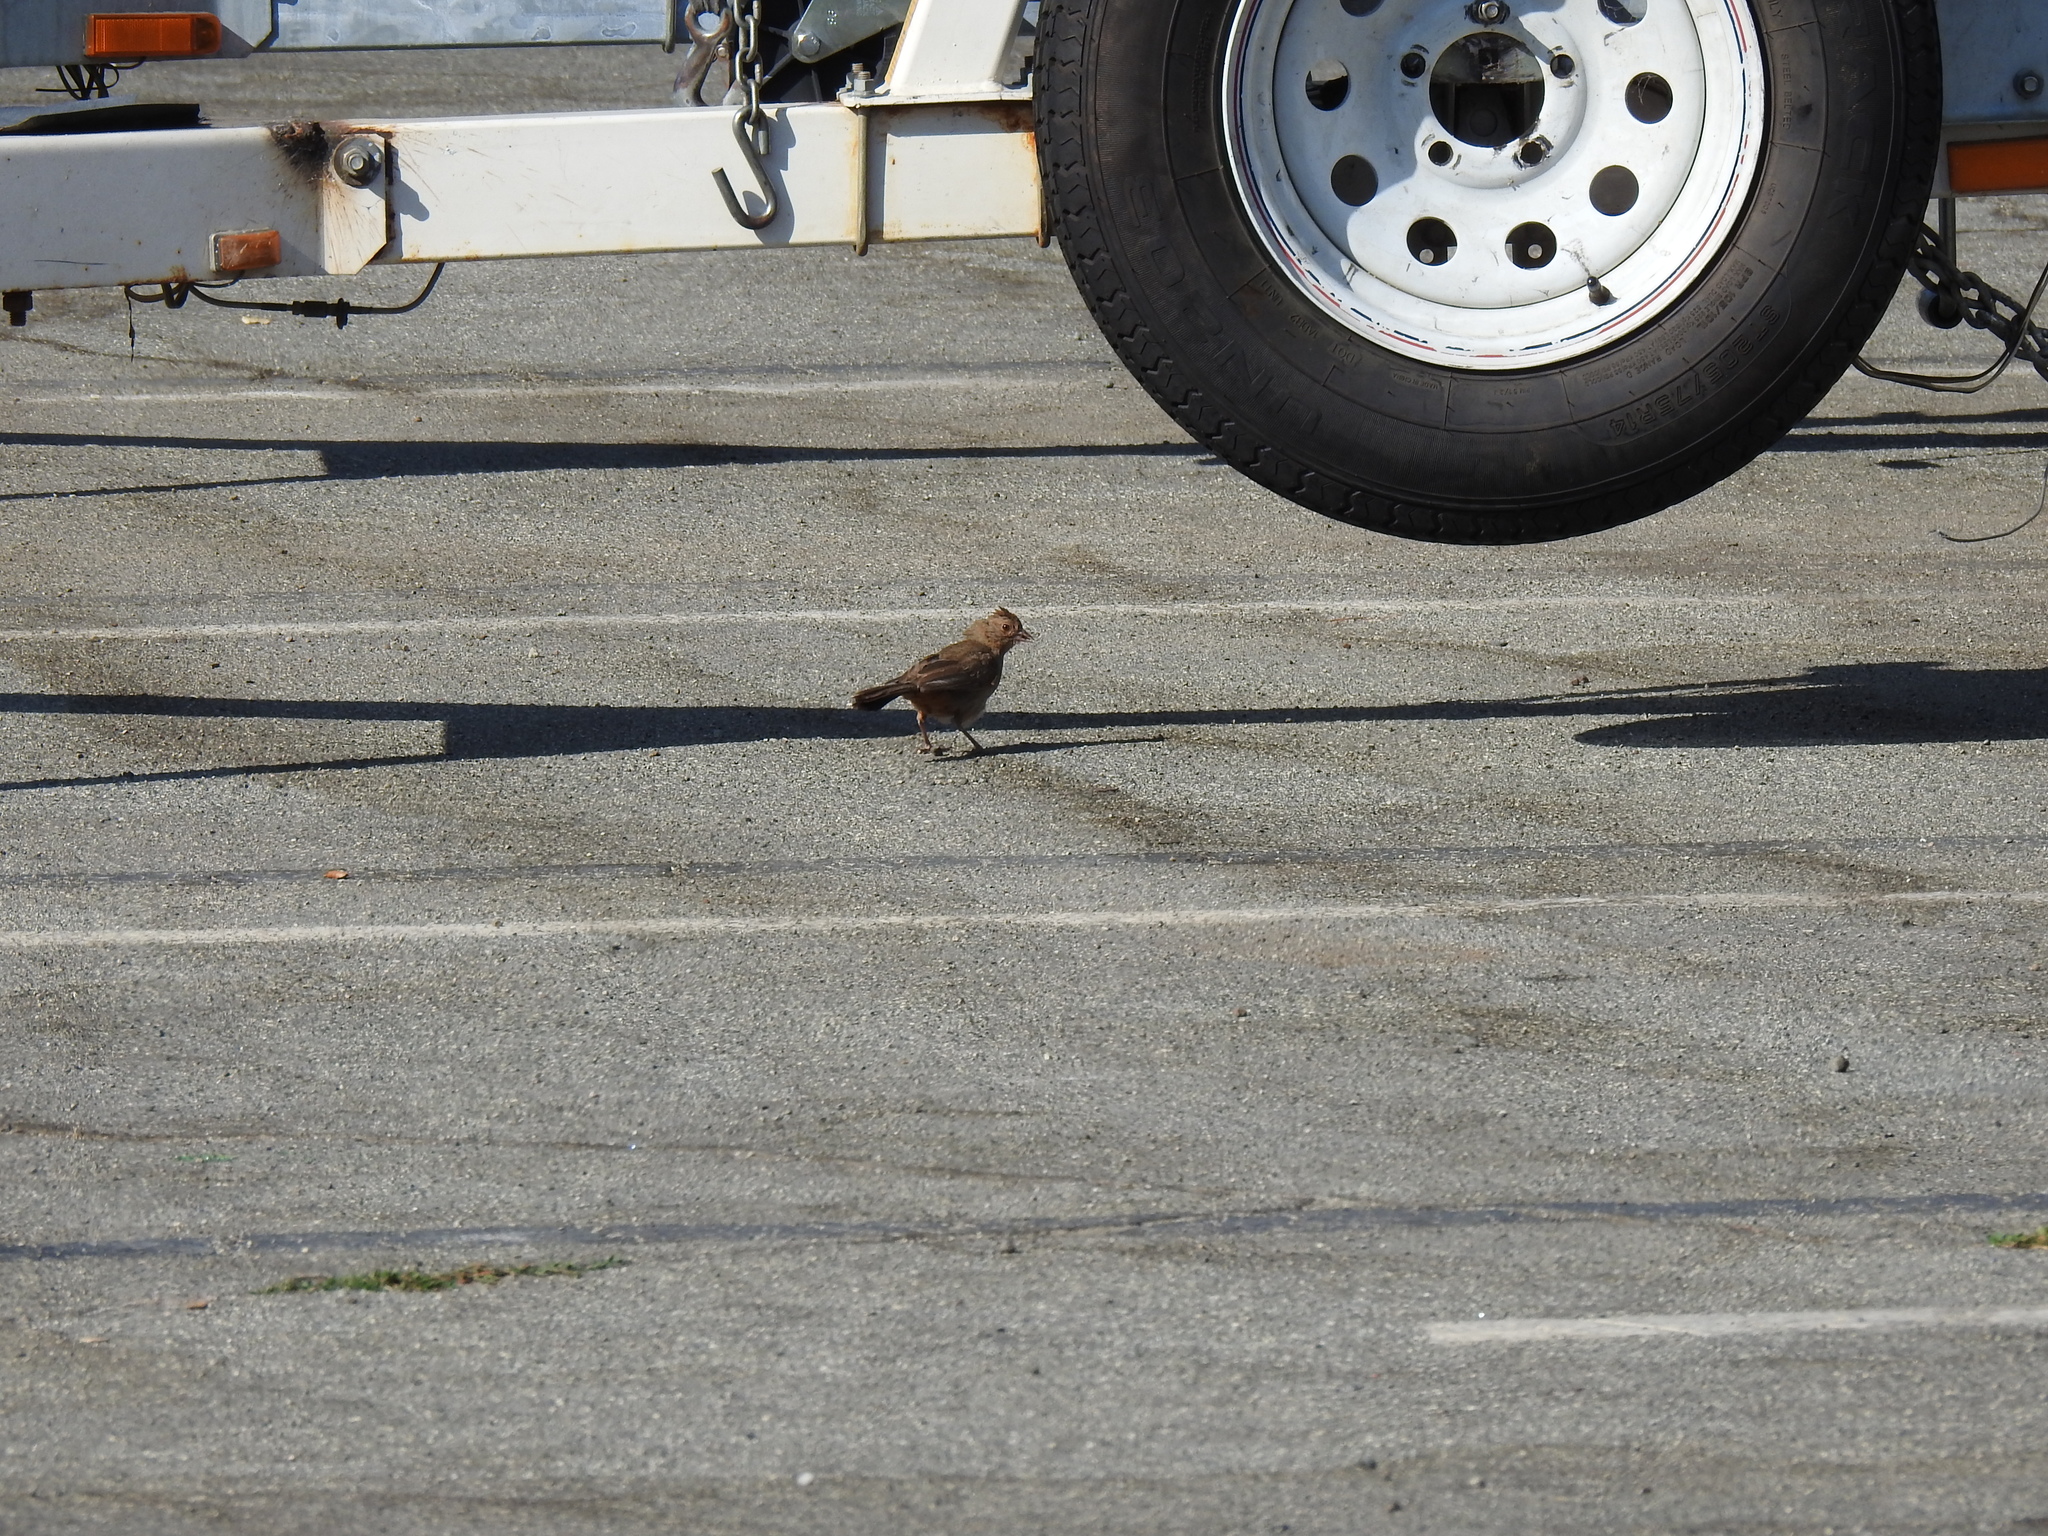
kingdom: Animalia
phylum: Chordata
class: Aves
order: Passeriformes
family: Passerellidae
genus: Melozone
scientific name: Melozone crissalis
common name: California towhee
